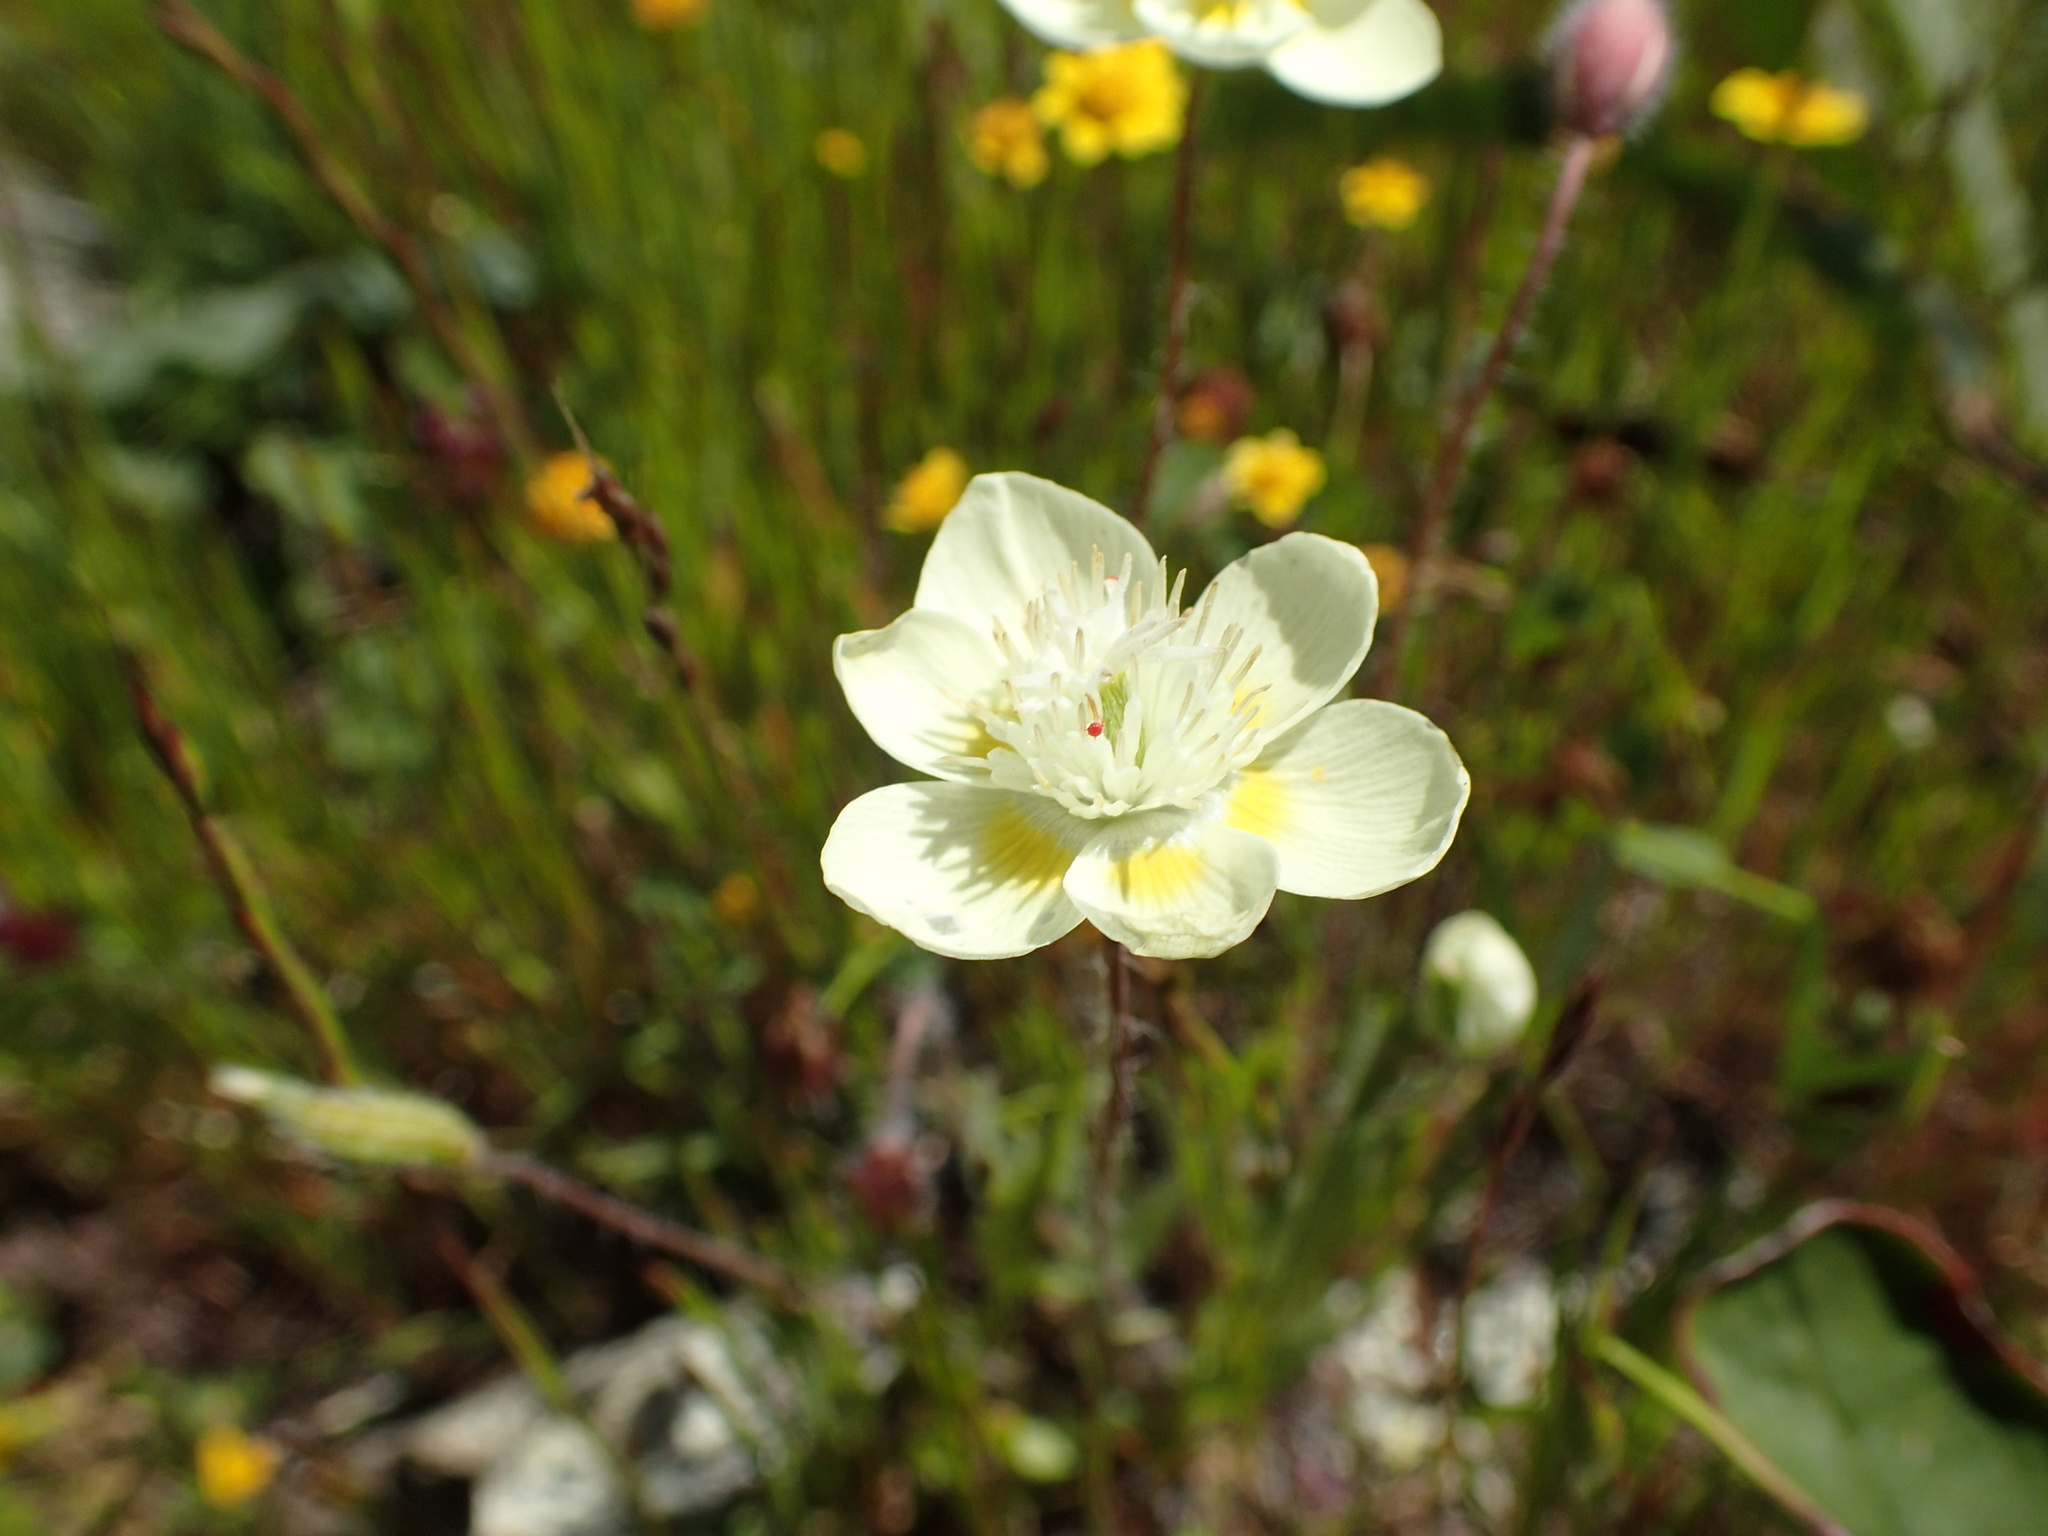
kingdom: Plantae
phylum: Tracheophyta
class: Magnoliopsida
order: Ranunculales
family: Papaveraceae
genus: Platystemon
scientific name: Platystemon californicus
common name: Cream-cups
